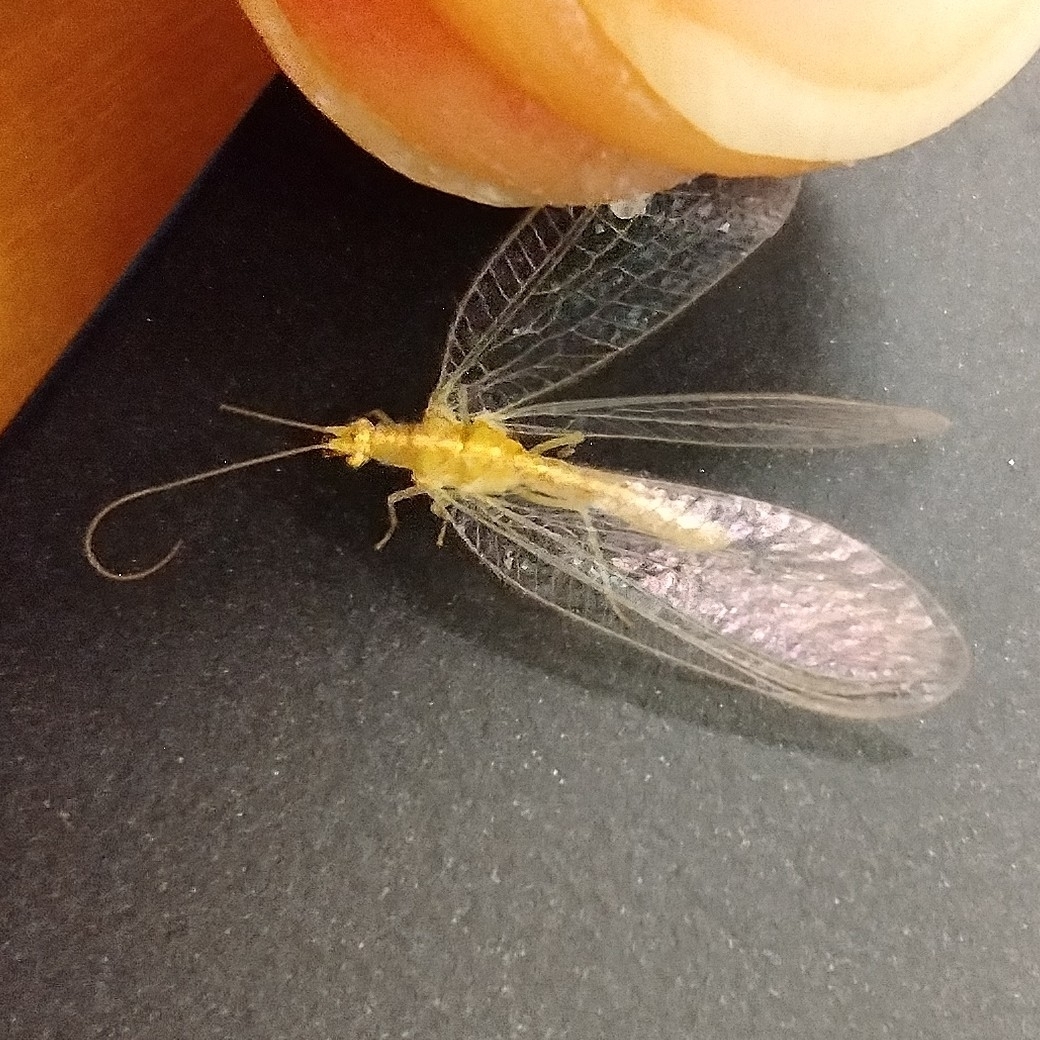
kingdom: Animalia
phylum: Arthropoda
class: Insecta
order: Neuroptera
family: Chrysopidae
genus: Chrysoperla
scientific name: Chrysoperla
